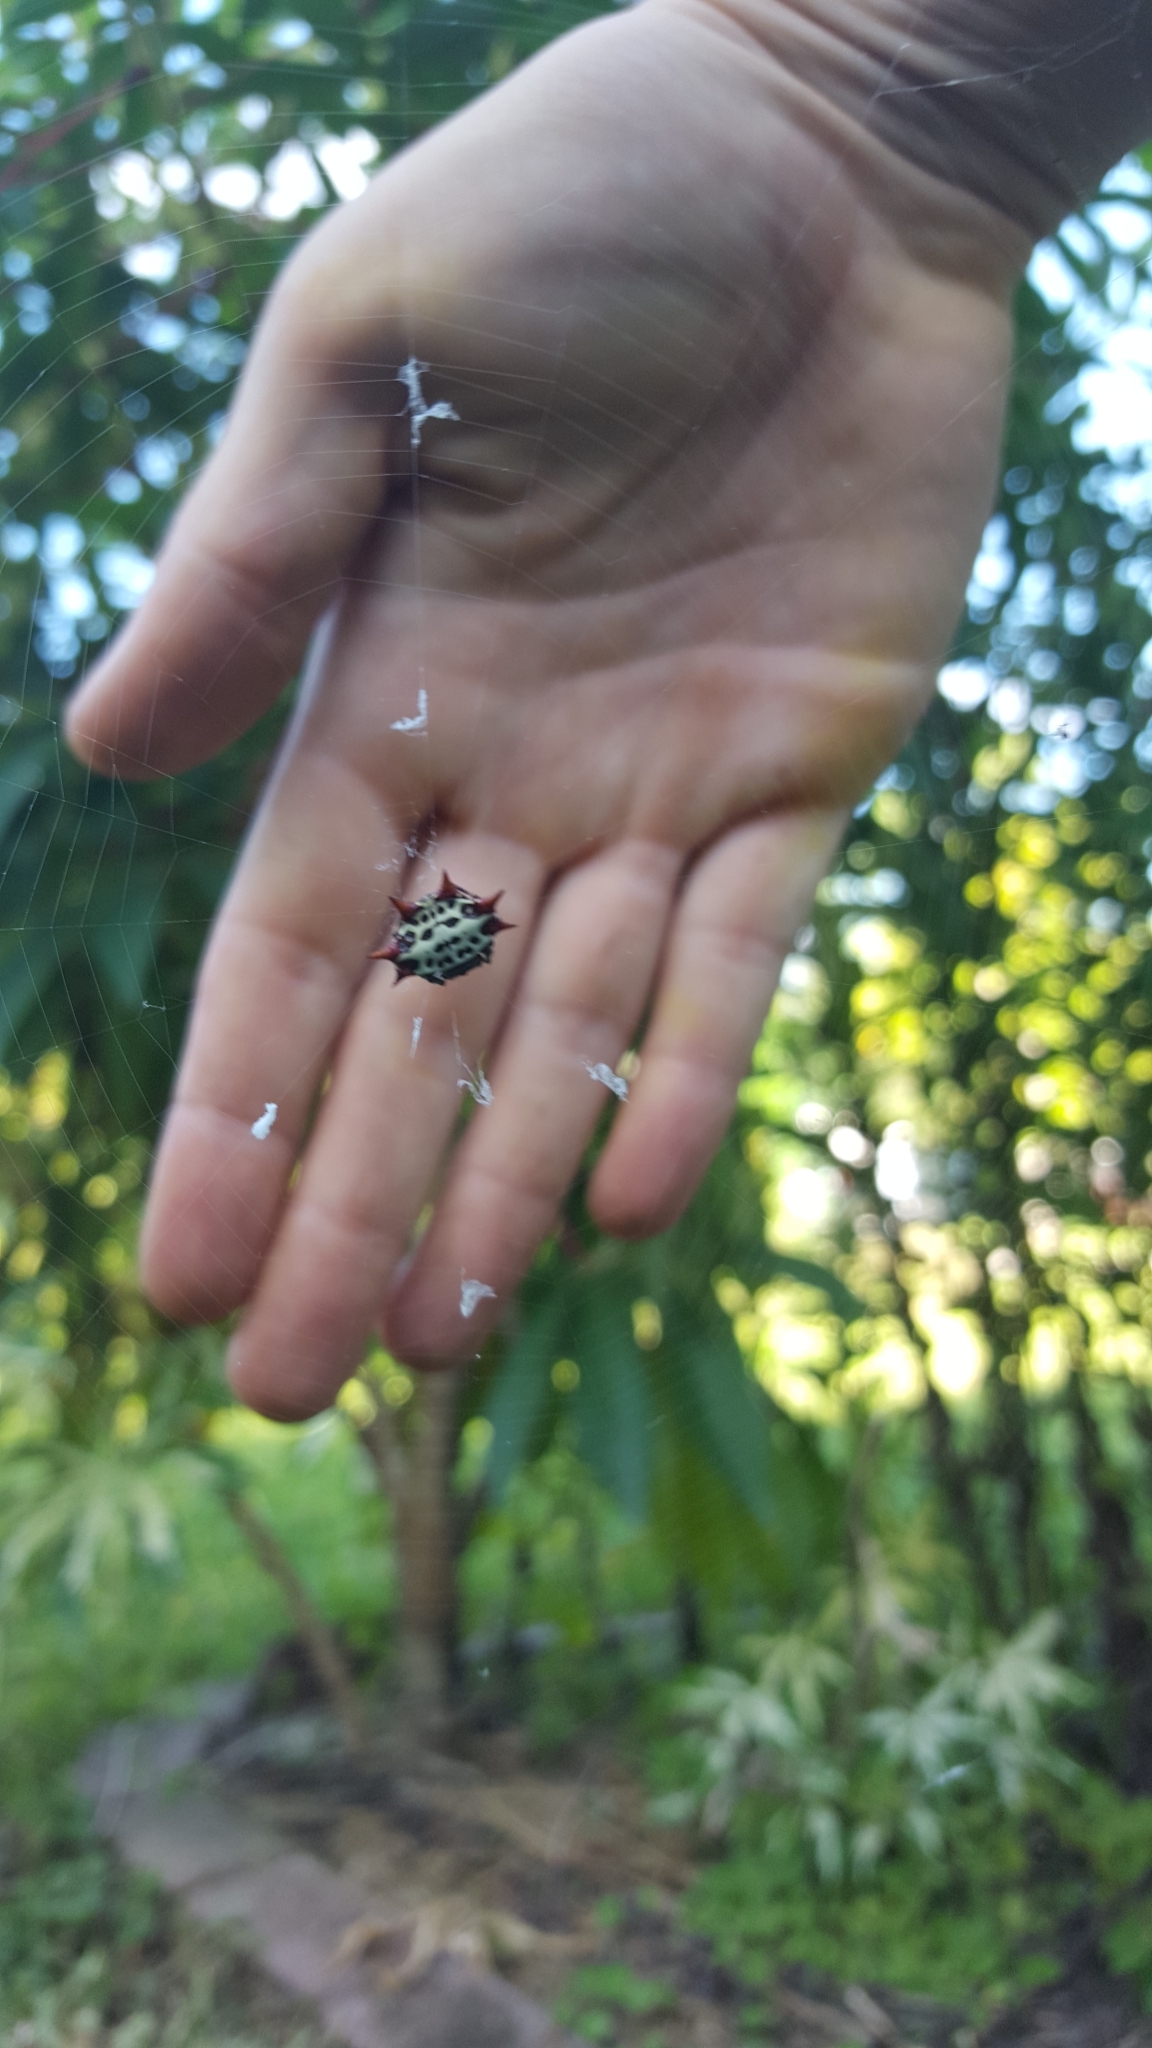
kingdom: Animalia
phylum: Arthropoda
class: Arachnida
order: Araneae
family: Araneidae
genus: Gasteracantha
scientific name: Gasteracantha cancriformis
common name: Orb weavers
